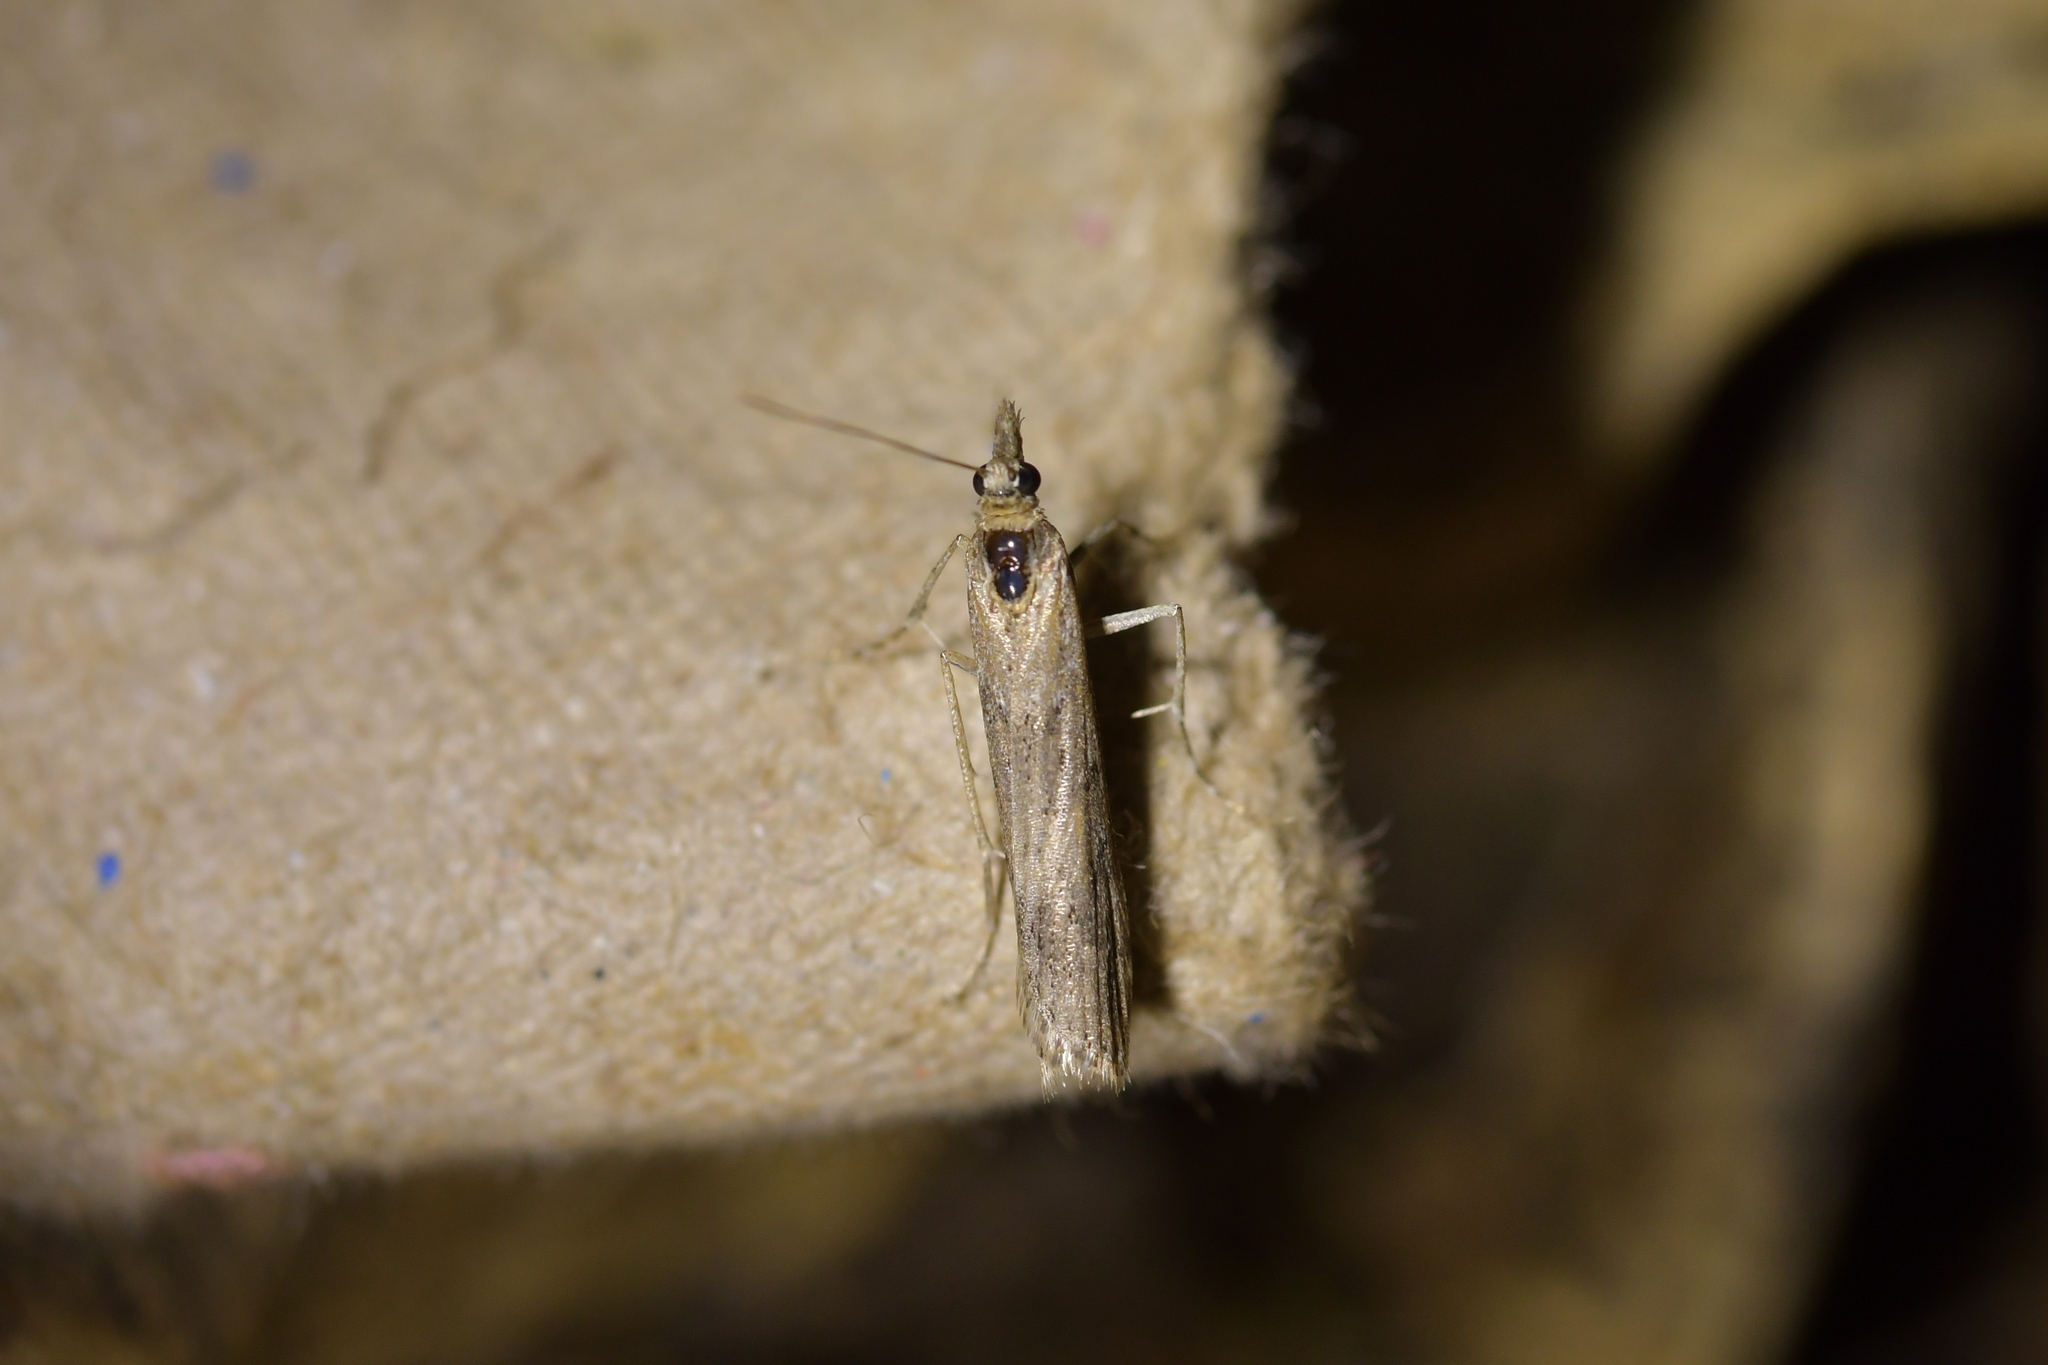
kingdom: Animalia
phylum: Arthropoda
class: Insecta
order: Lepidoptera
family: Crambidae
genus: Eudonia
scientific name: Eudonia leptalea
